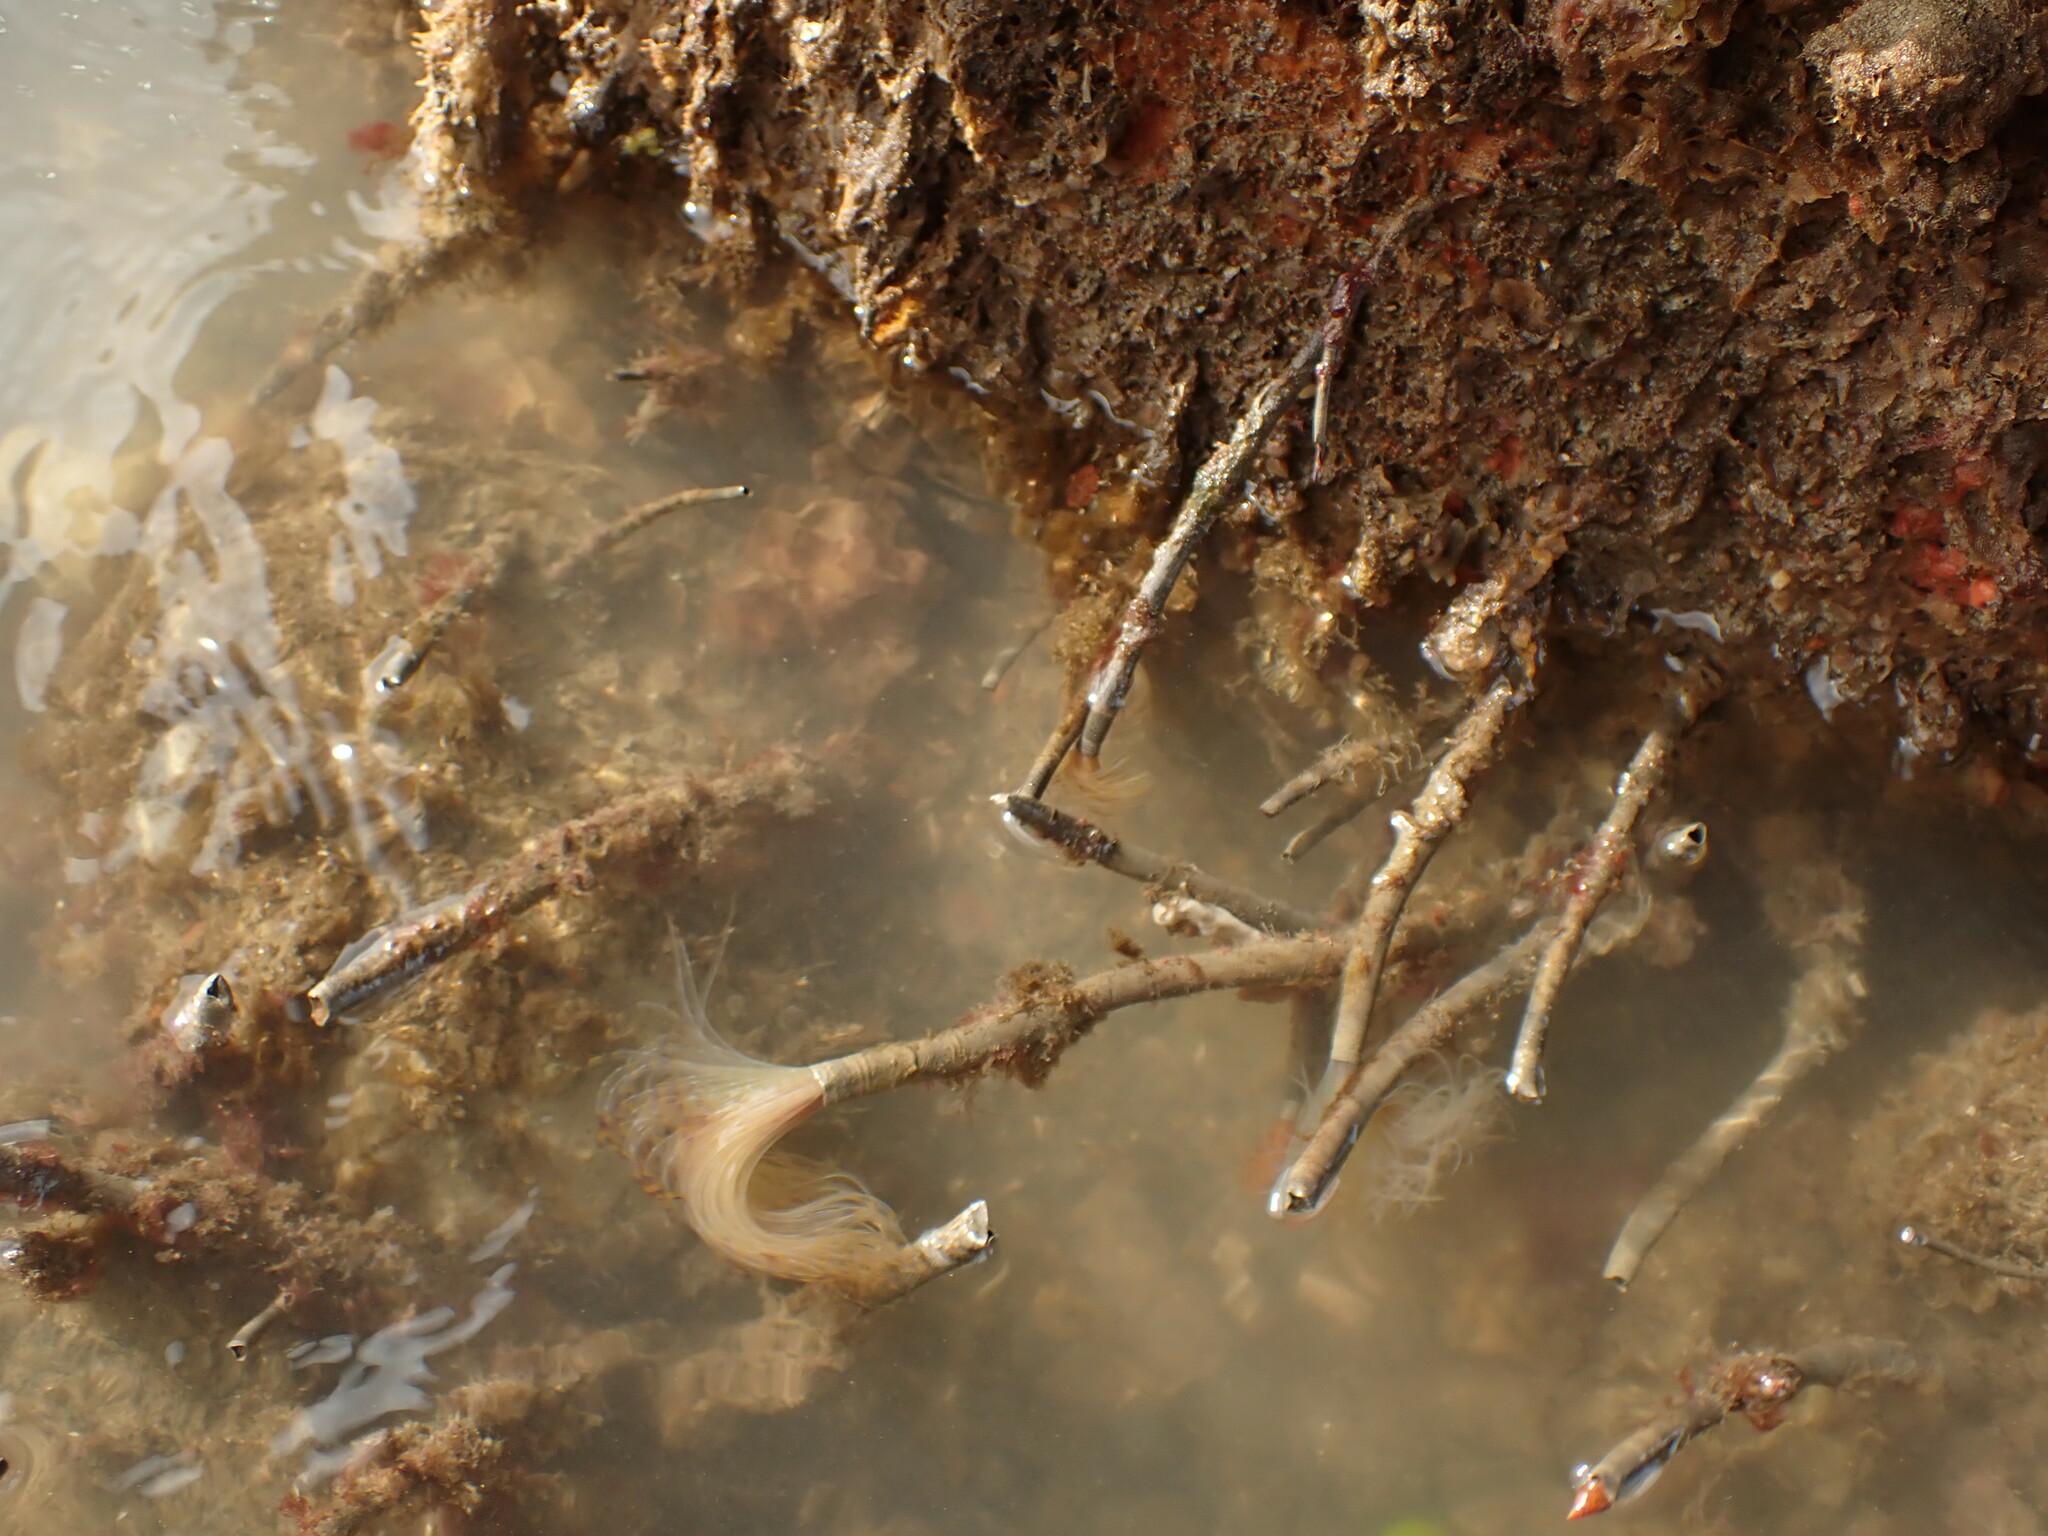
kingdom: Animalia
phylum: Annelida
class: Polychaeta
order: Sabellida
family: Sabellidae
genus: Sabella
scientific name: Sabella spallanzanii
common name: Feather duster worm
